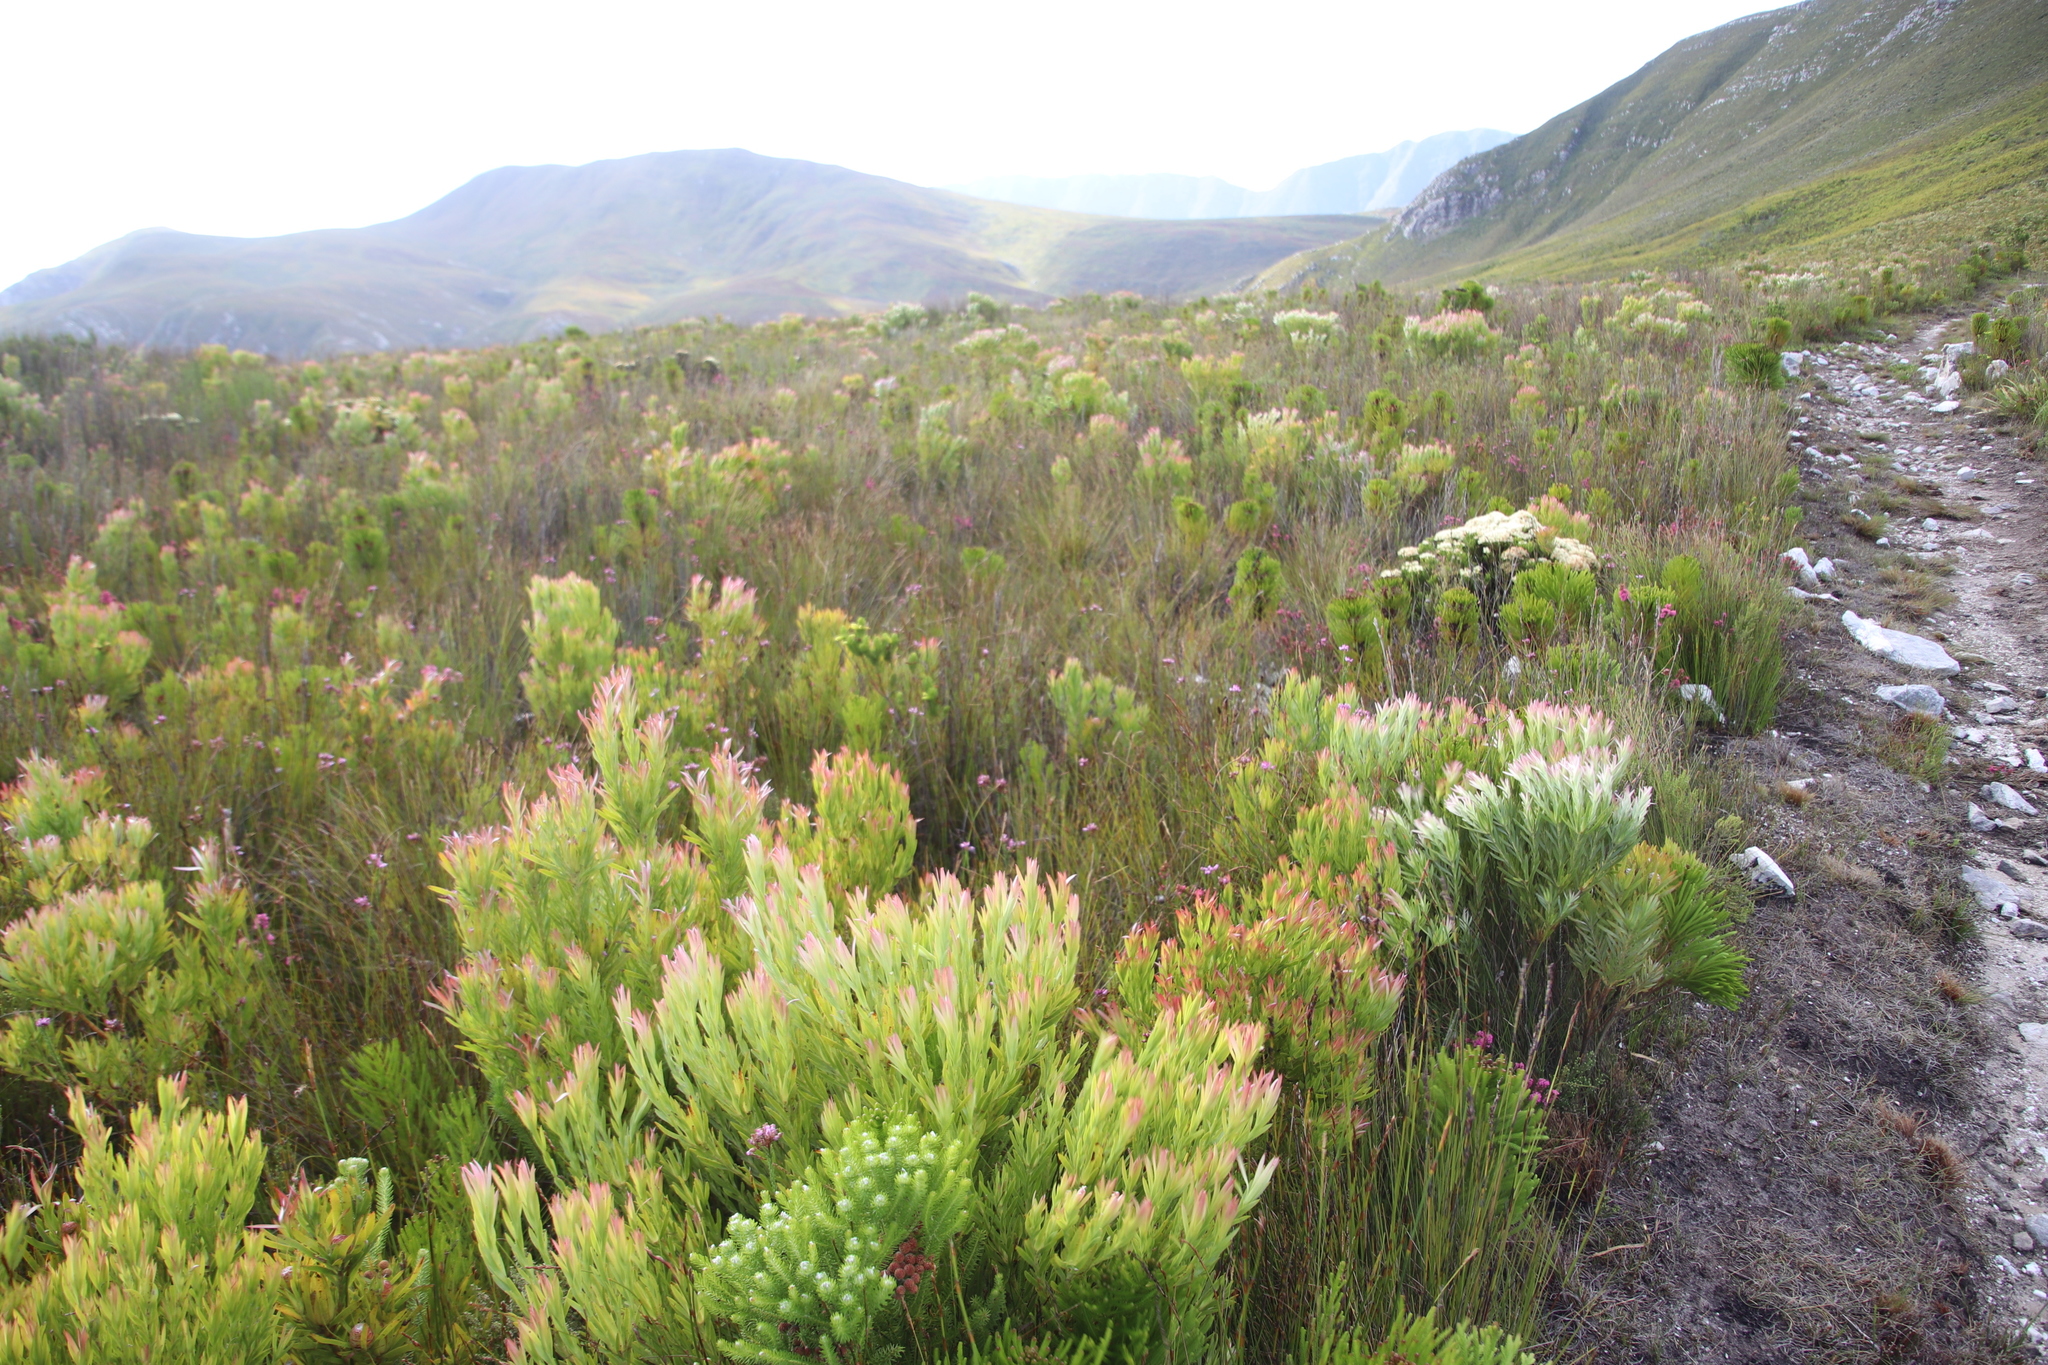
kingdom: Plantae
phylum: Tracheophyta
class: Magnoliopsida
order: Proteales
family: Proteaceae
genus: Leucadendron
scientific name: Leucadendron xanthoconus
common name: Sickle-leaf conebush
